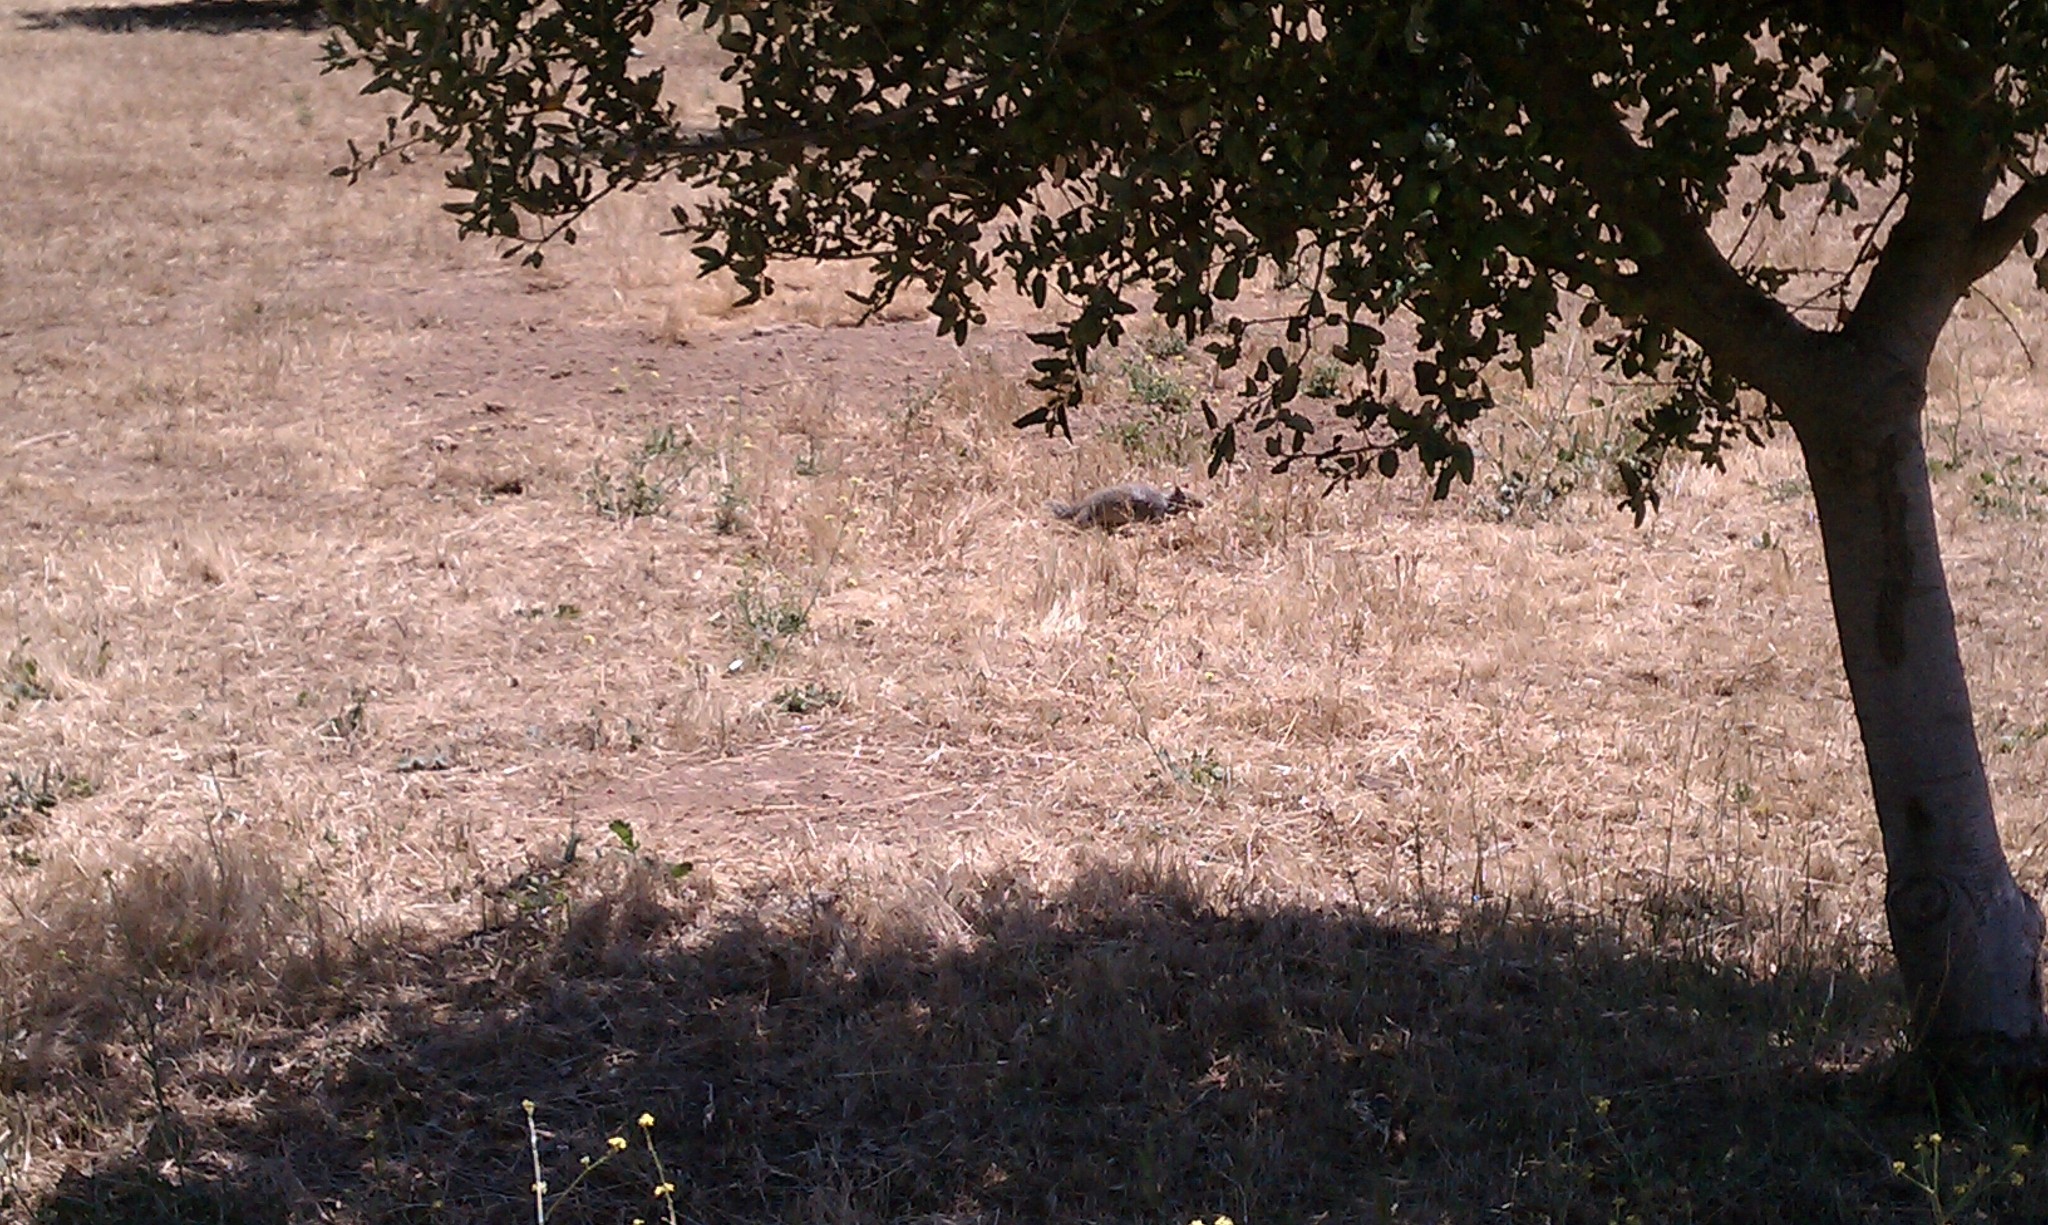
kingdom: Animalia
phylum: Chordata
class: Mammalia
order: Rodentia
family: Sciuridae
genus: Otospermophilus
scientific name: Otospermophilus beecheyi
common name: California ground squirrel
